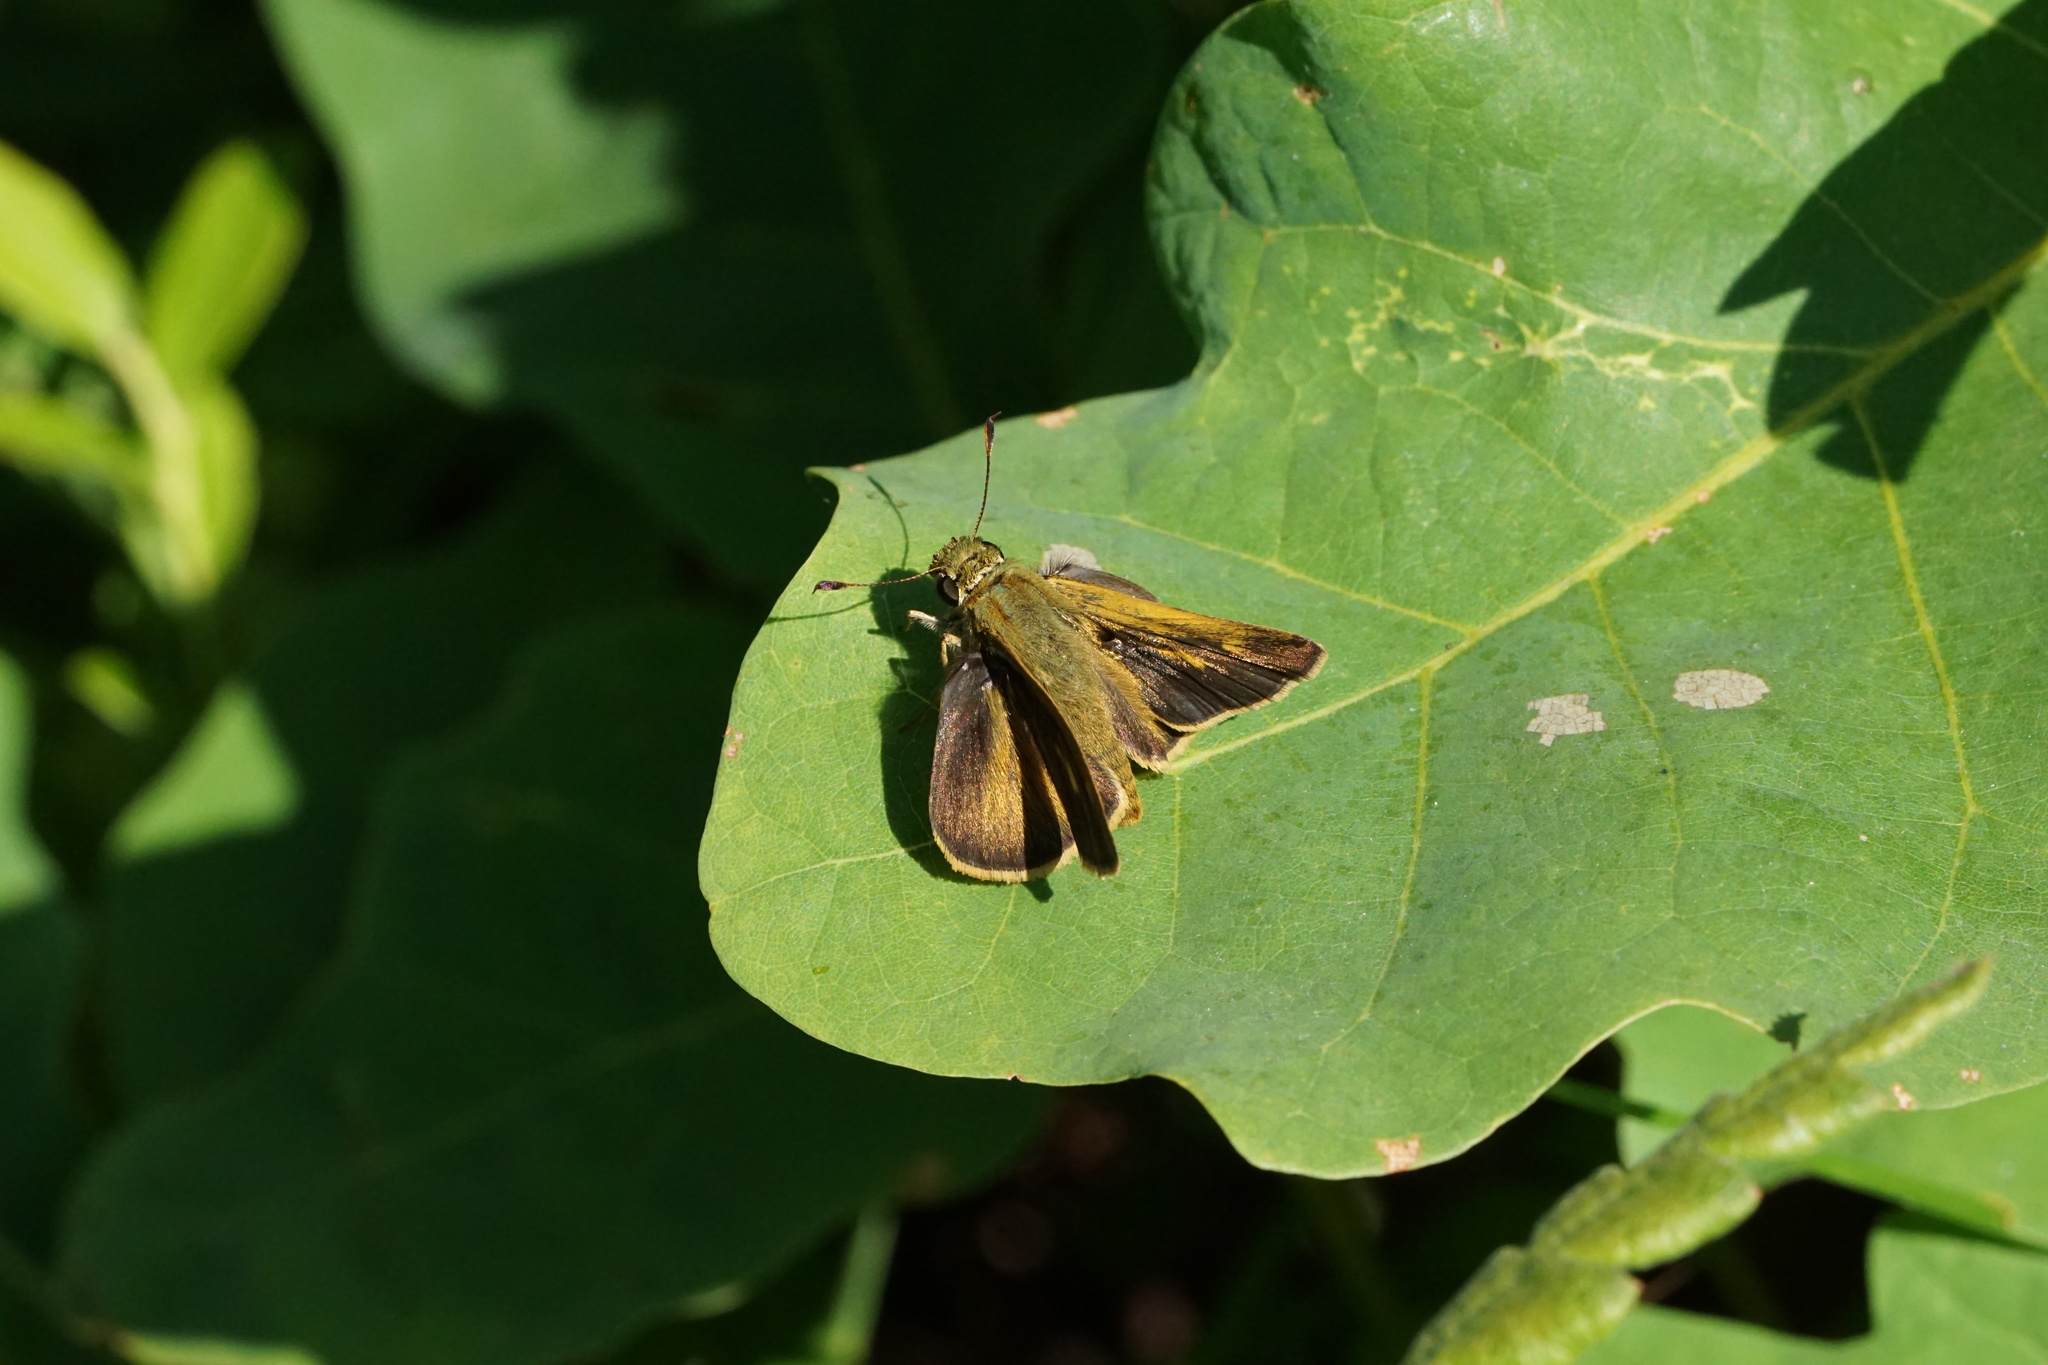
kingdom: Animalia
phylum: Arthropoda
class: Insecta
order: Lepidoptera
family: Hesperiidae
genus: Polites
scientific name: Polites egeremet
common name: Northern broken-dash
